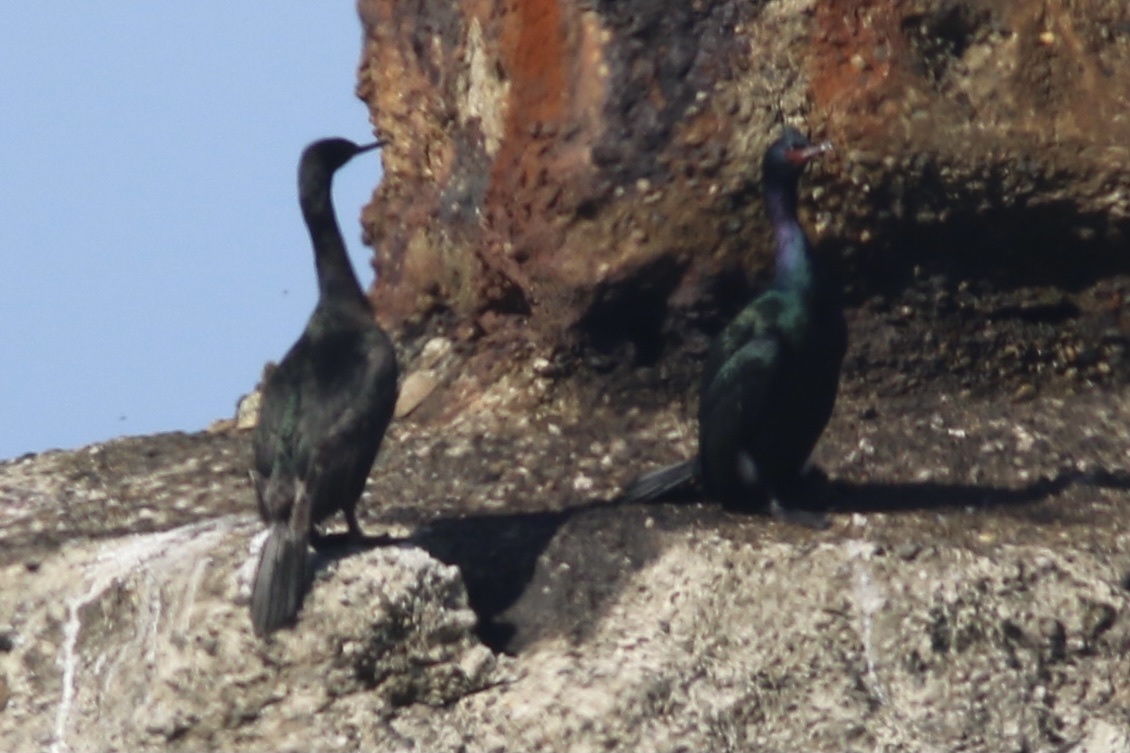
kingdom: Animalia
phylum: Chordata
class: Aves
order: Suliformes
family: Phalacrocoracidae
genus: Phalacrocorax
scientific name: Phalacrocorax pelagicus
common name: Pelagic cormorant
